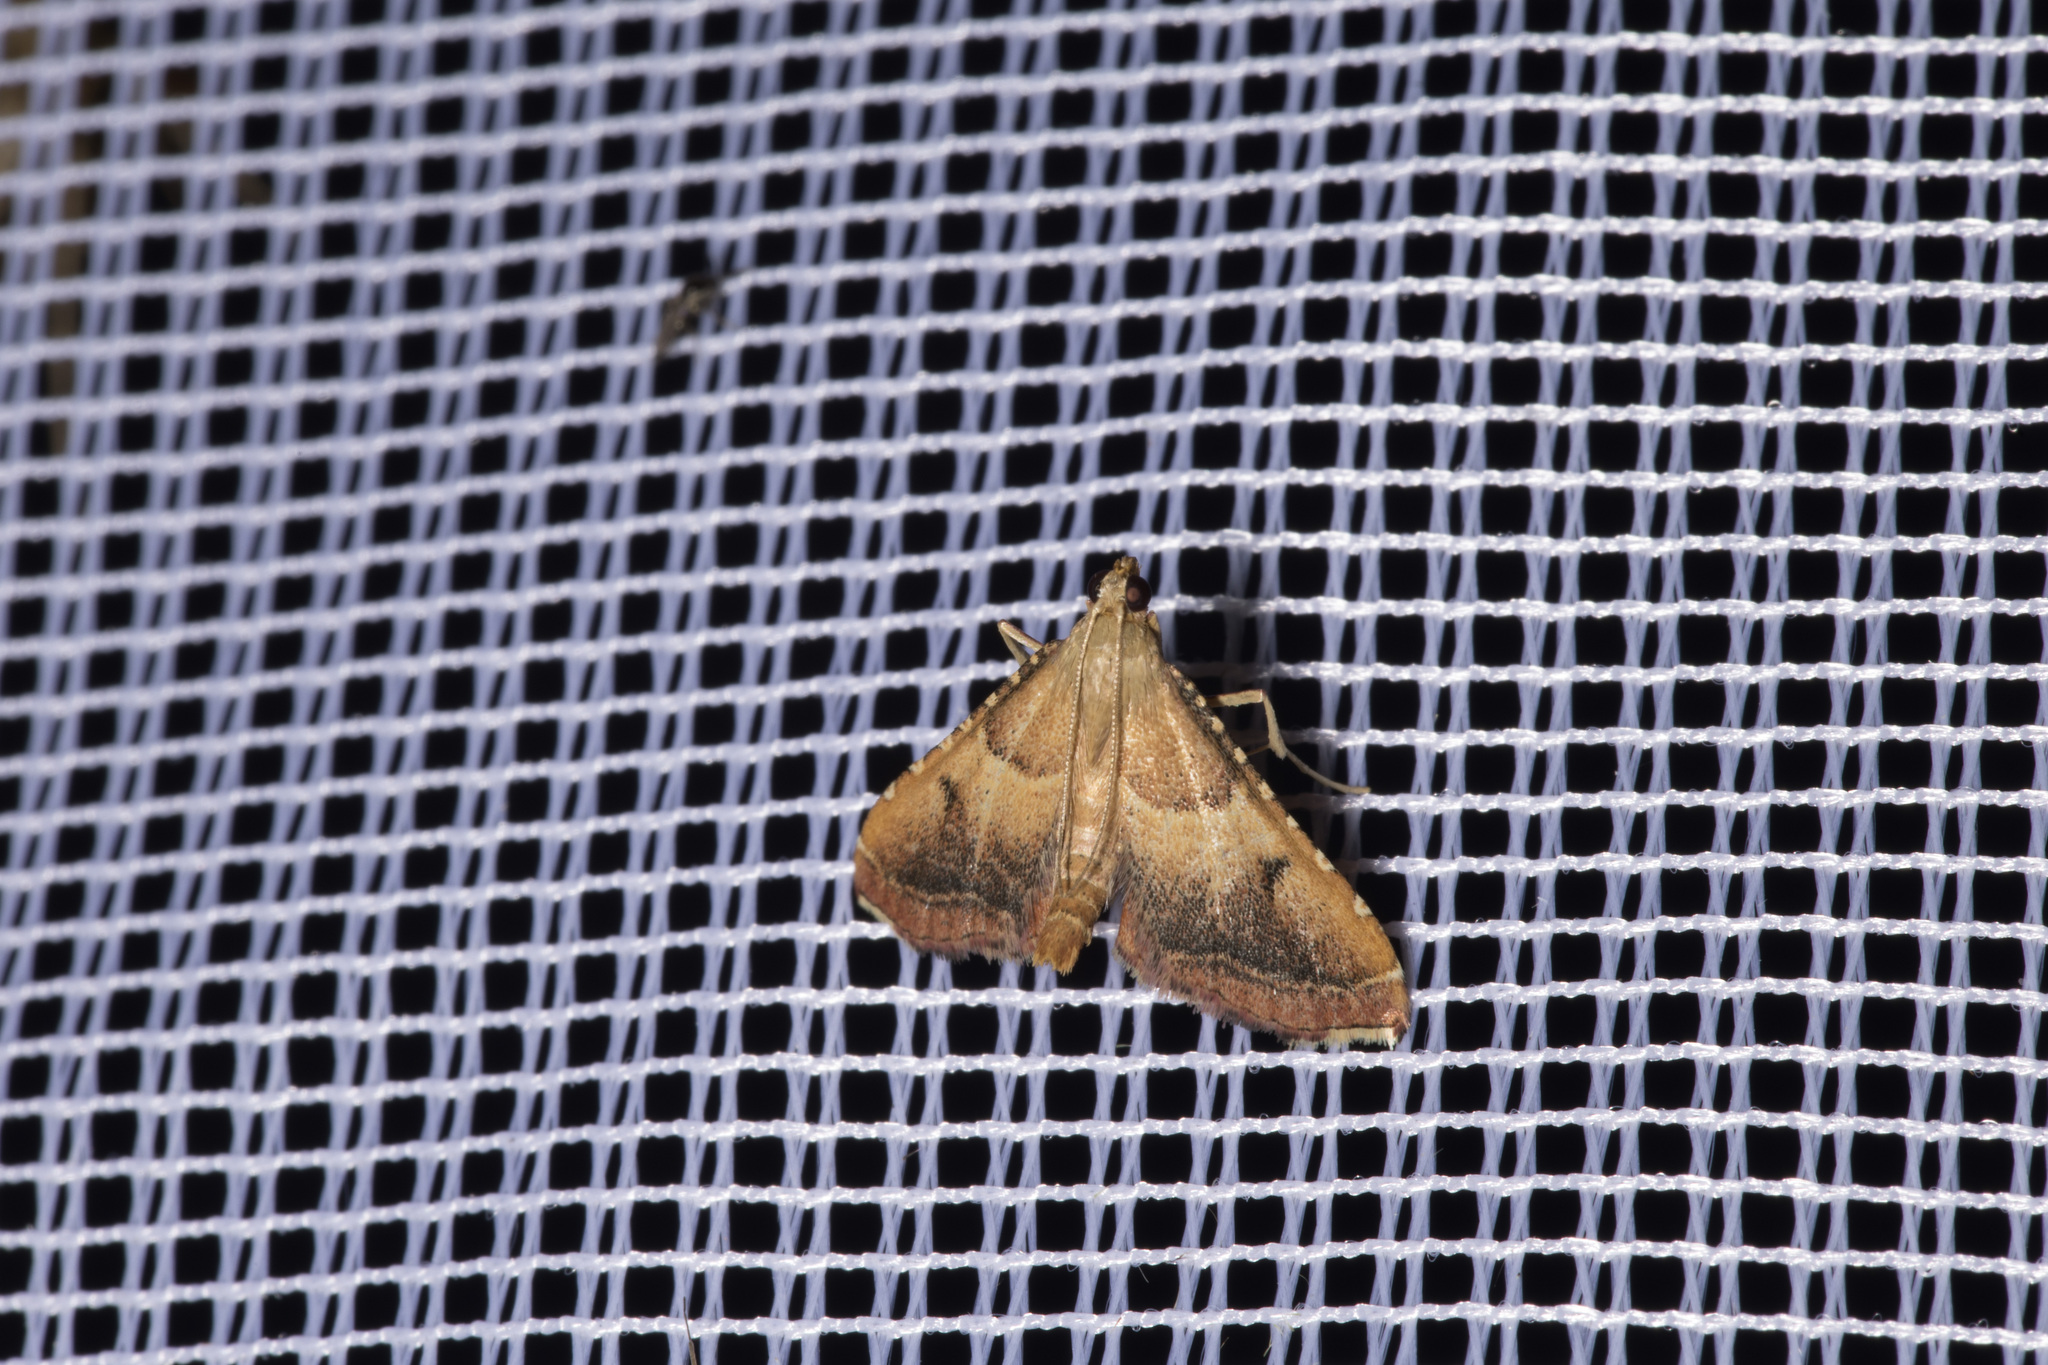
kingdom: Animalia
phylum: Arthropoda
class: Insecta
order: Lepidoptera
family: Pyralidae
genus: Endotricha
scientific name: Endotricha flammealis
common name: Rosy tabby
